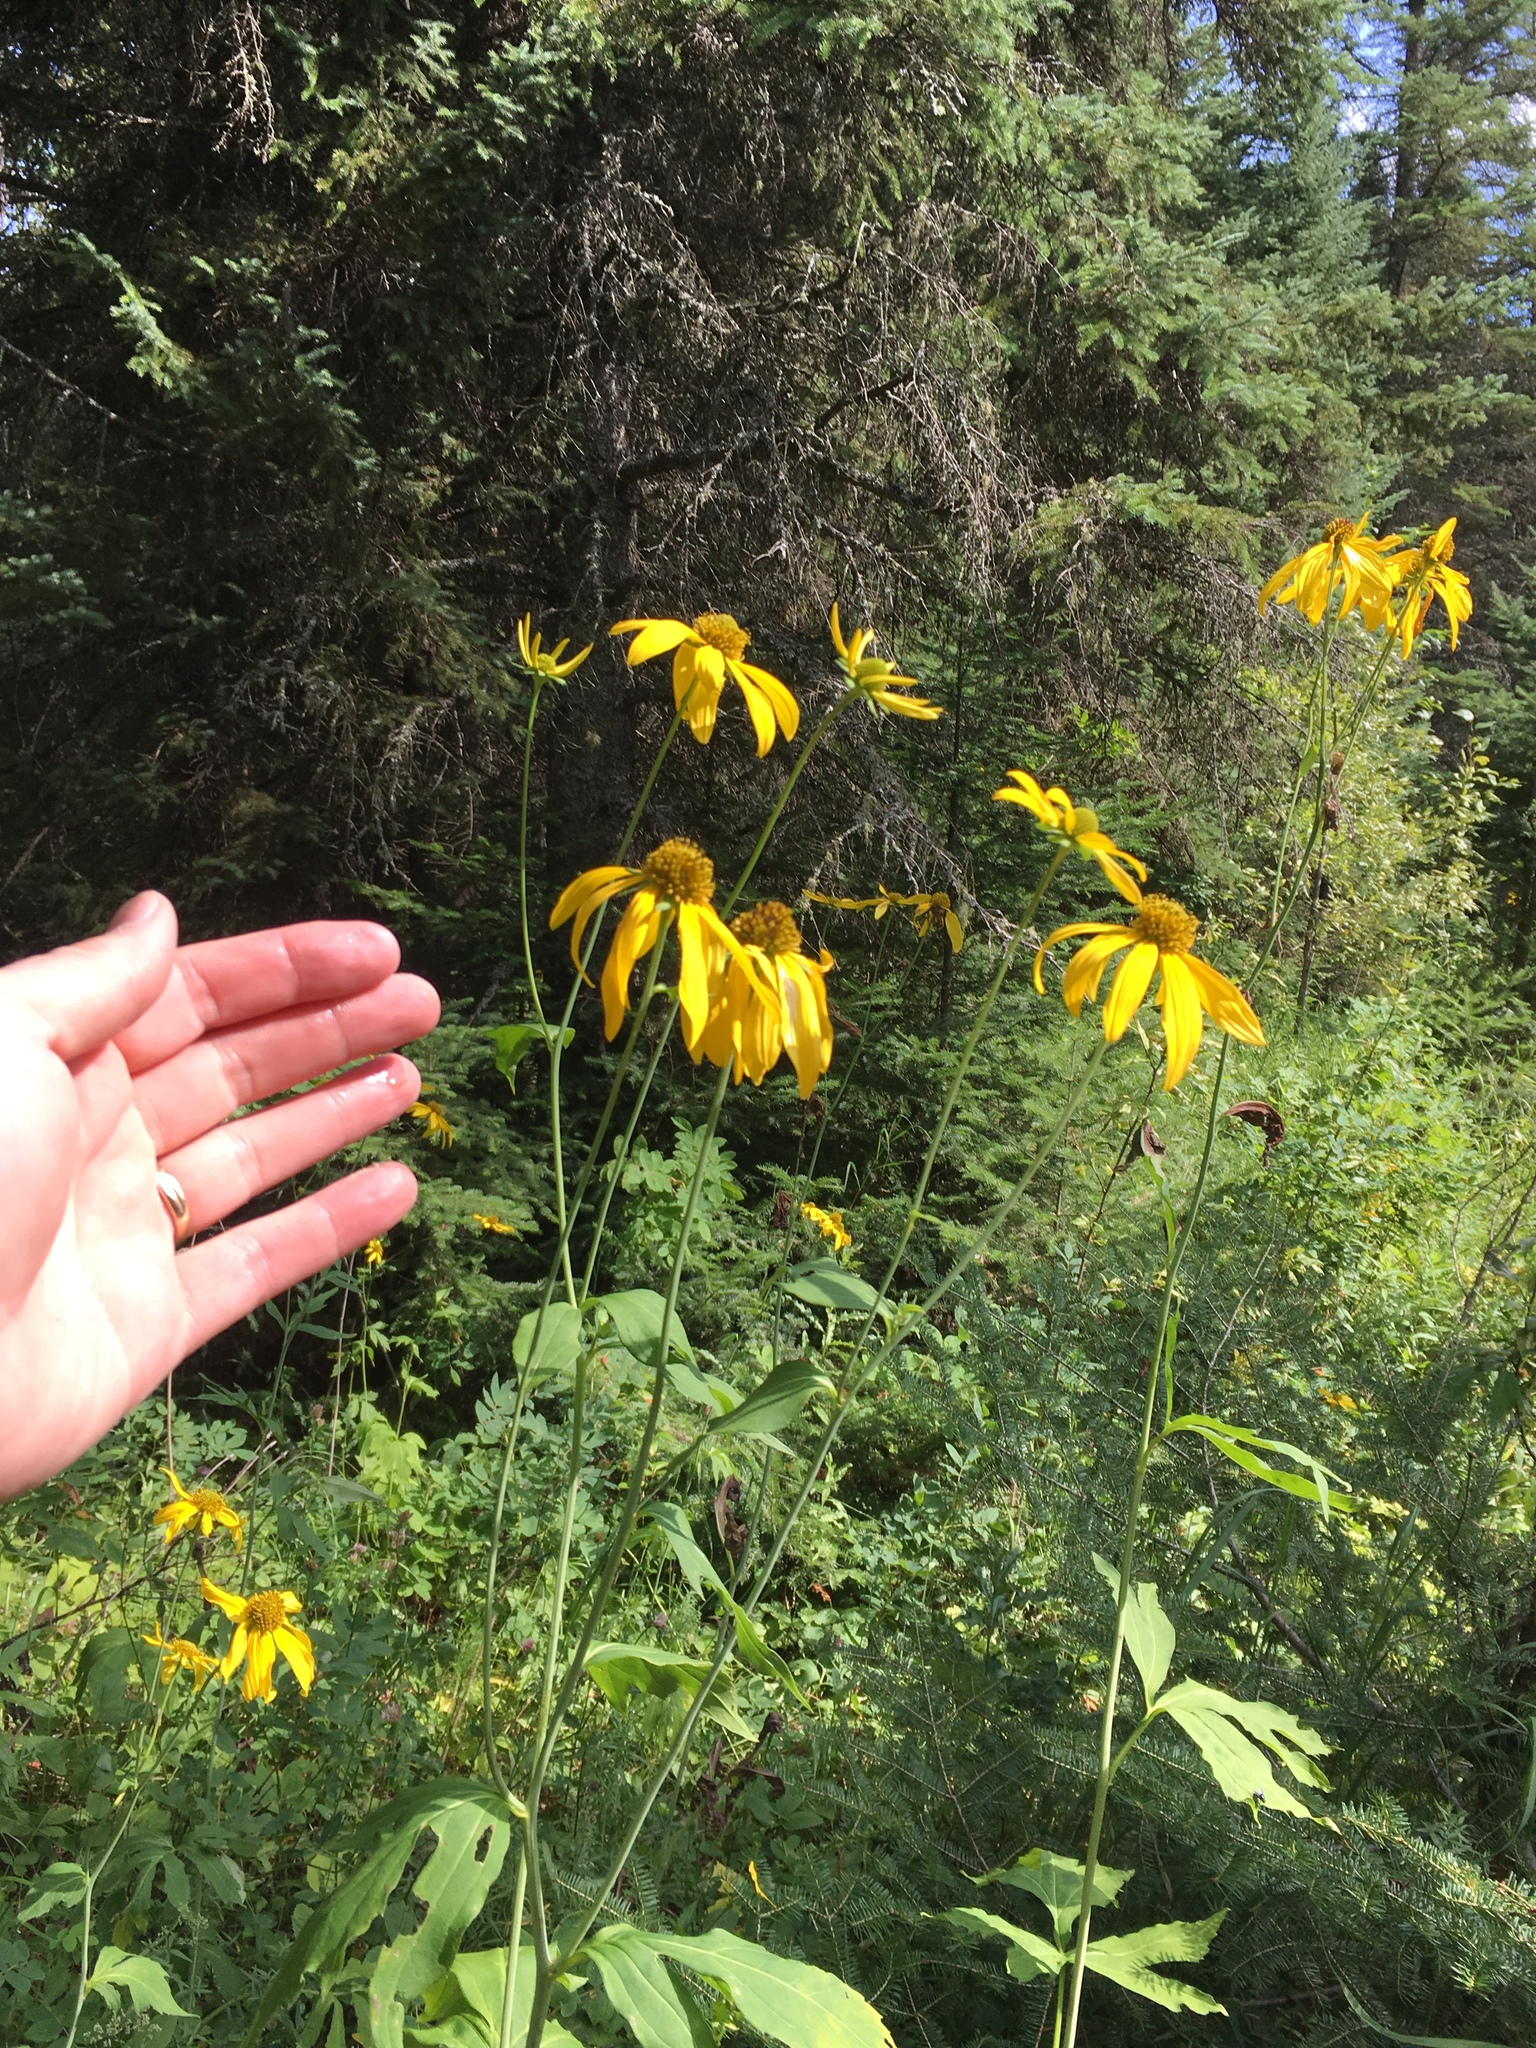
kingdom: Plantae
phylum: Tracheophyta
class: Magnoliopsida
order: Asterales
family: Asteraceae
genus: Rudbeckia
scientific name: Rudbeckia laciniata
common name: Coneflower
